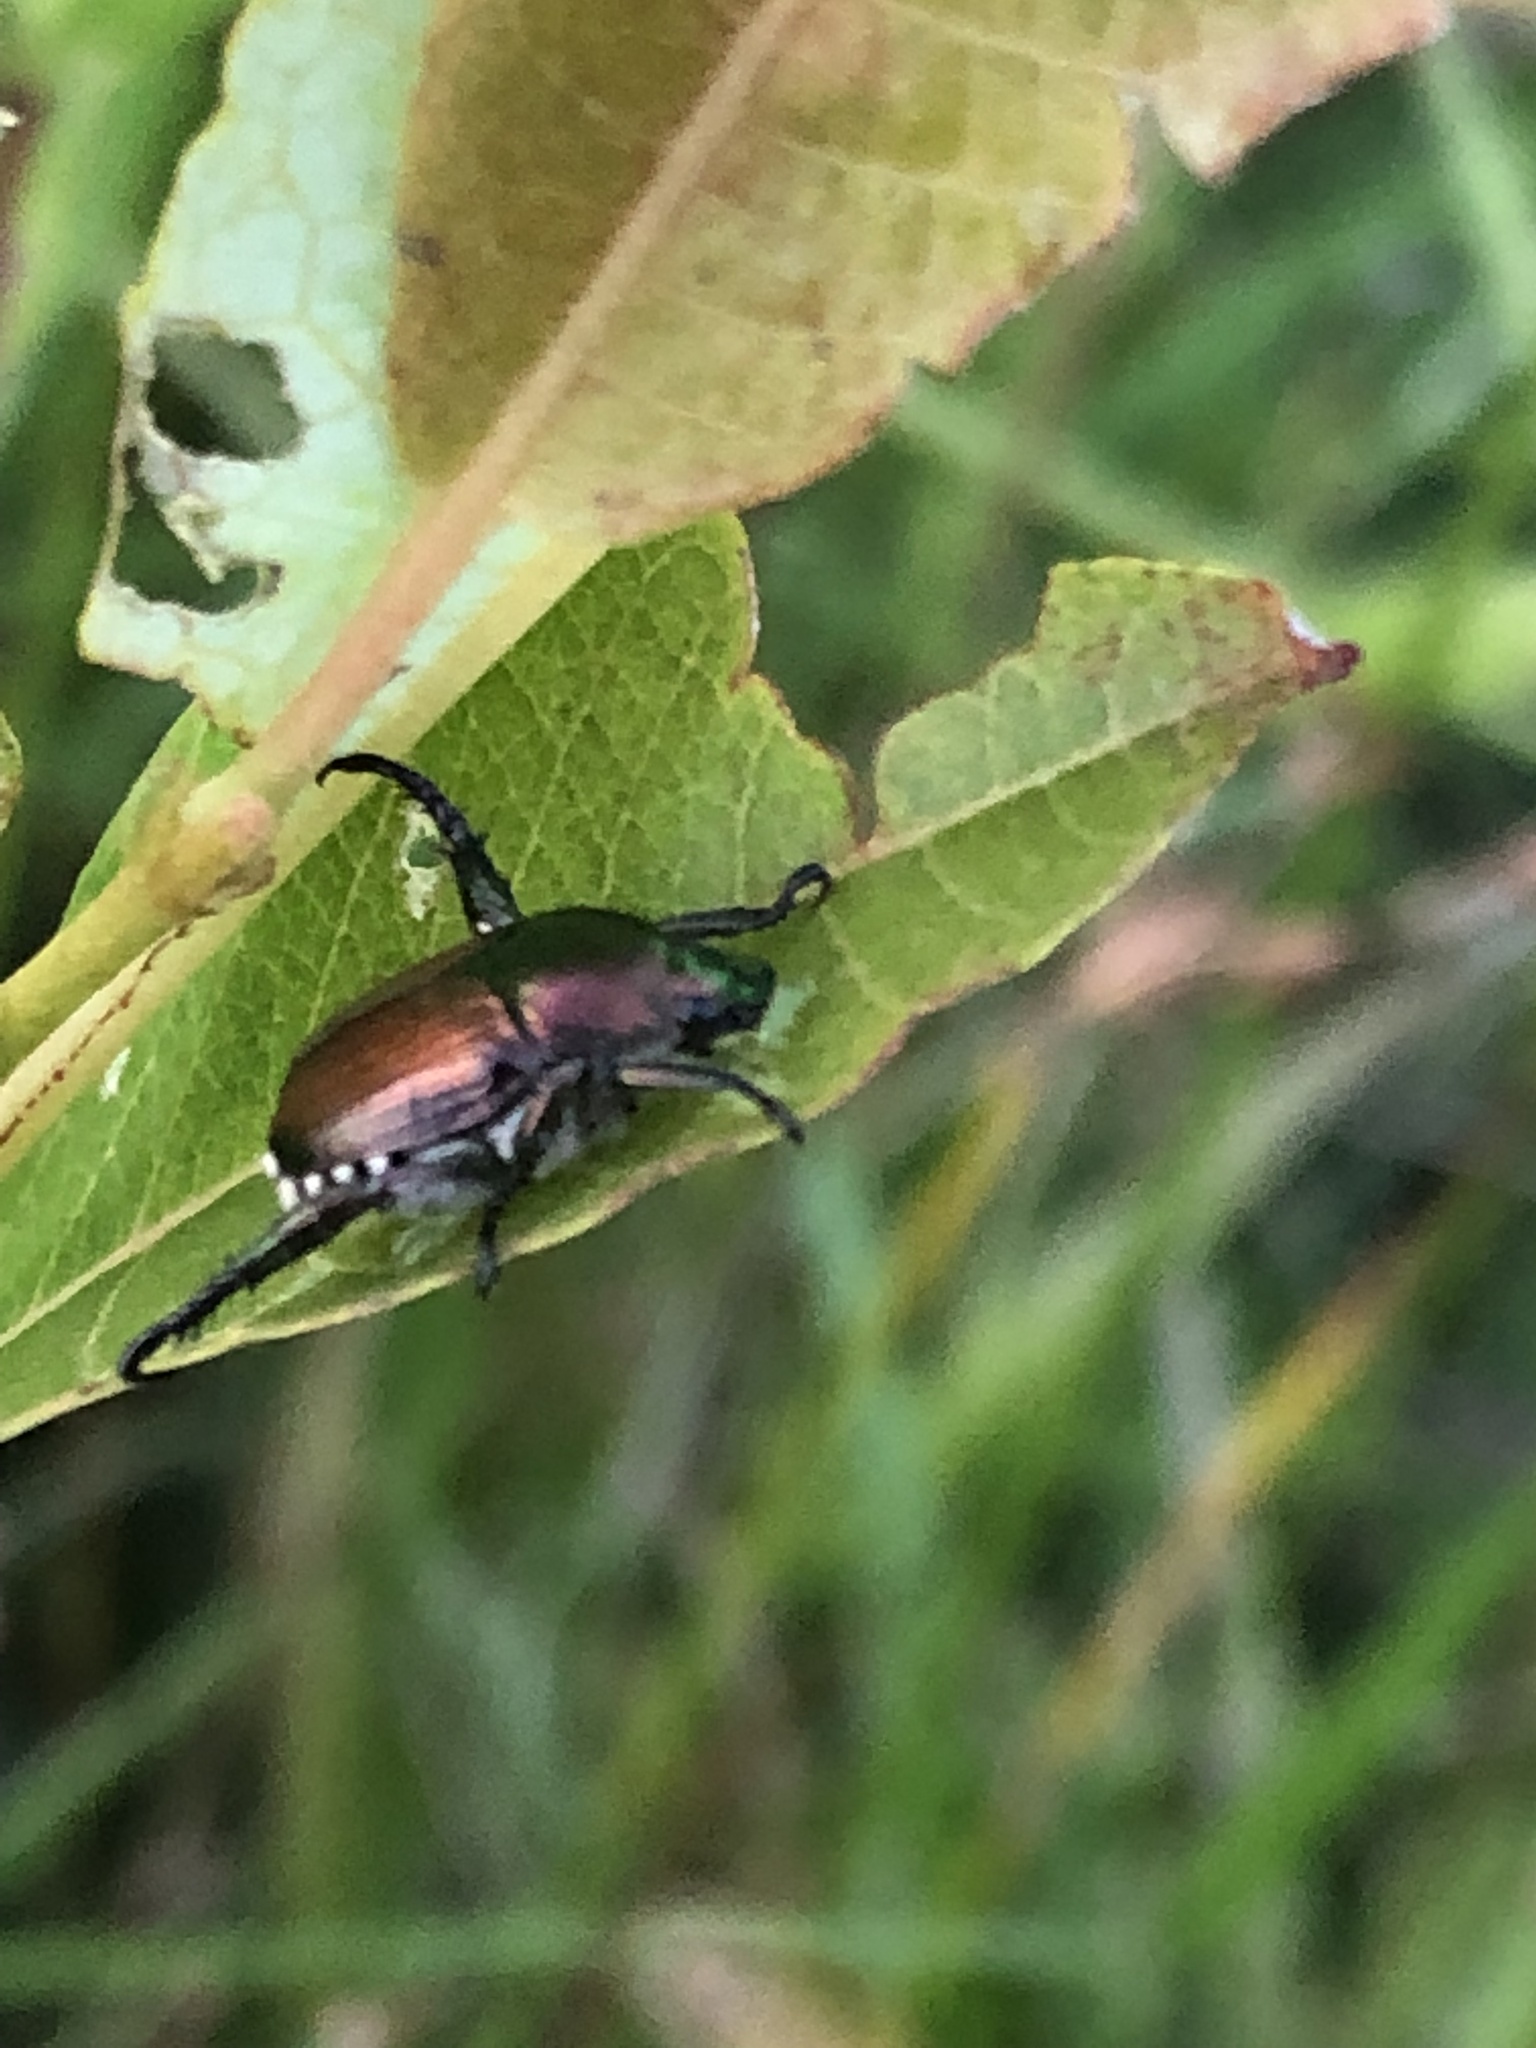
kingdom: Animalia
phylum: Arthropoda
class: Insecta
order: Coleoptera
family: Scarabaeidae
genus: Popillia
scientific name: Popillia japonica
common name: Japanese beetle
